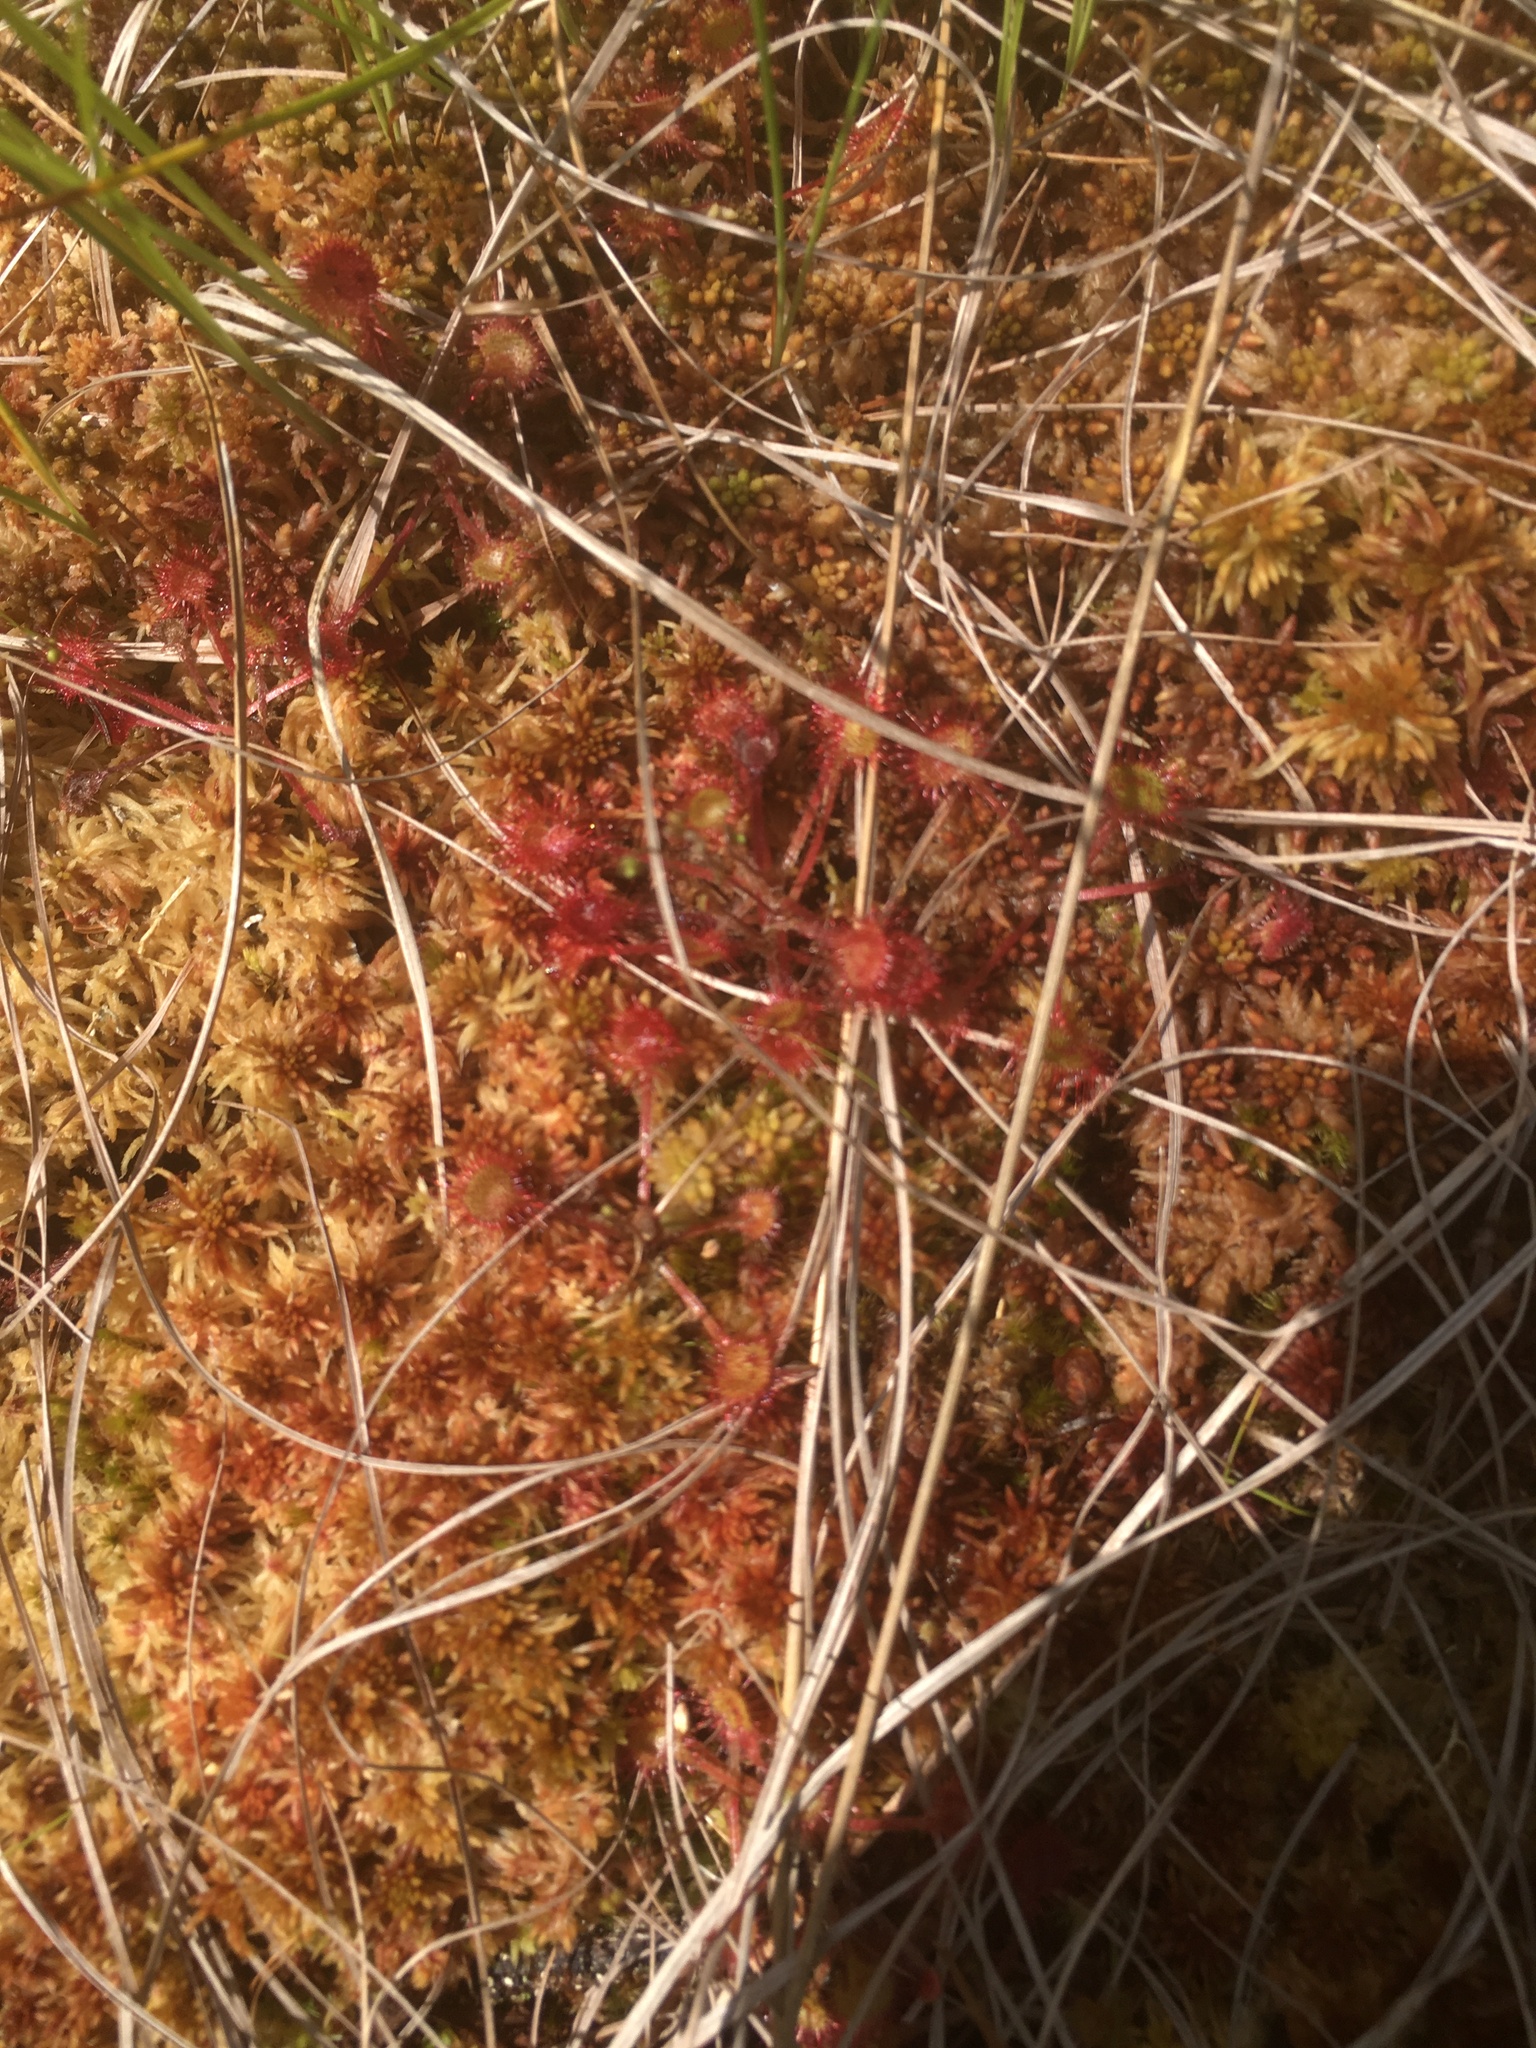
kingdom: Plantae
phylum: Tracheophyta
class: Magnoliopsida
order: Caryophyllales
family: Droseraceae
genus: Drosera
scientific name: Drosera rotundifolia
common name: Round-leaved sundew
